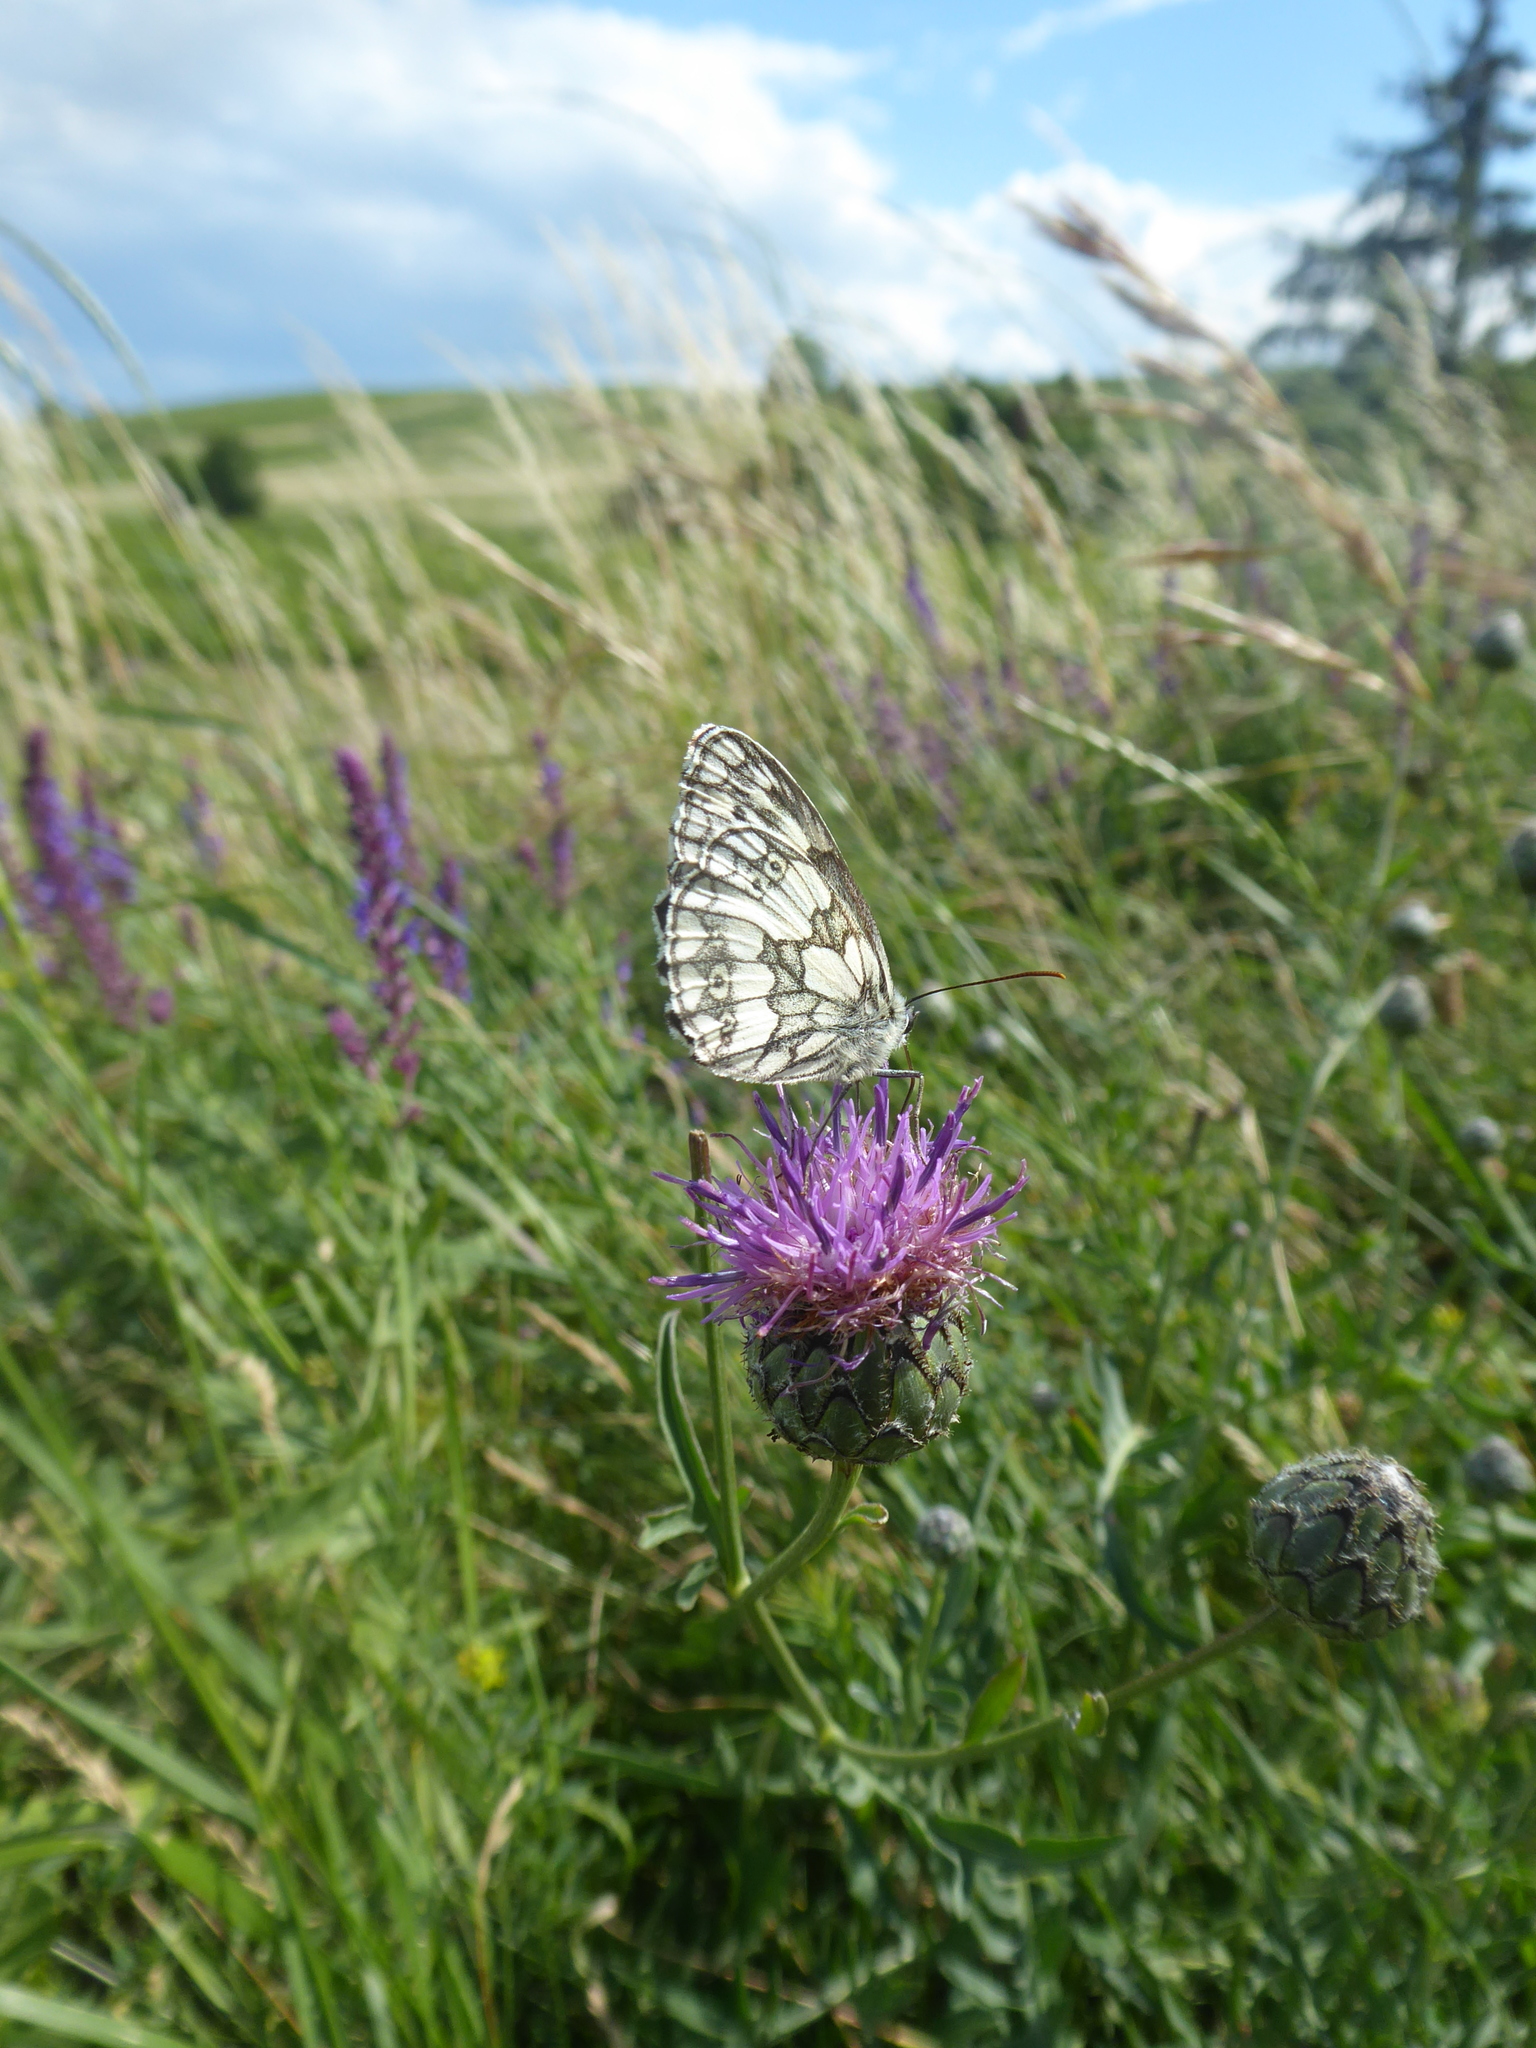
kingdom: Animalia
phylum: Arthropoda
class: Insecta
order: Lepidoptera
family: Nymphalidae
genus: Melanargia
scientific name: Melanargia galathea
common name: Marbled white
